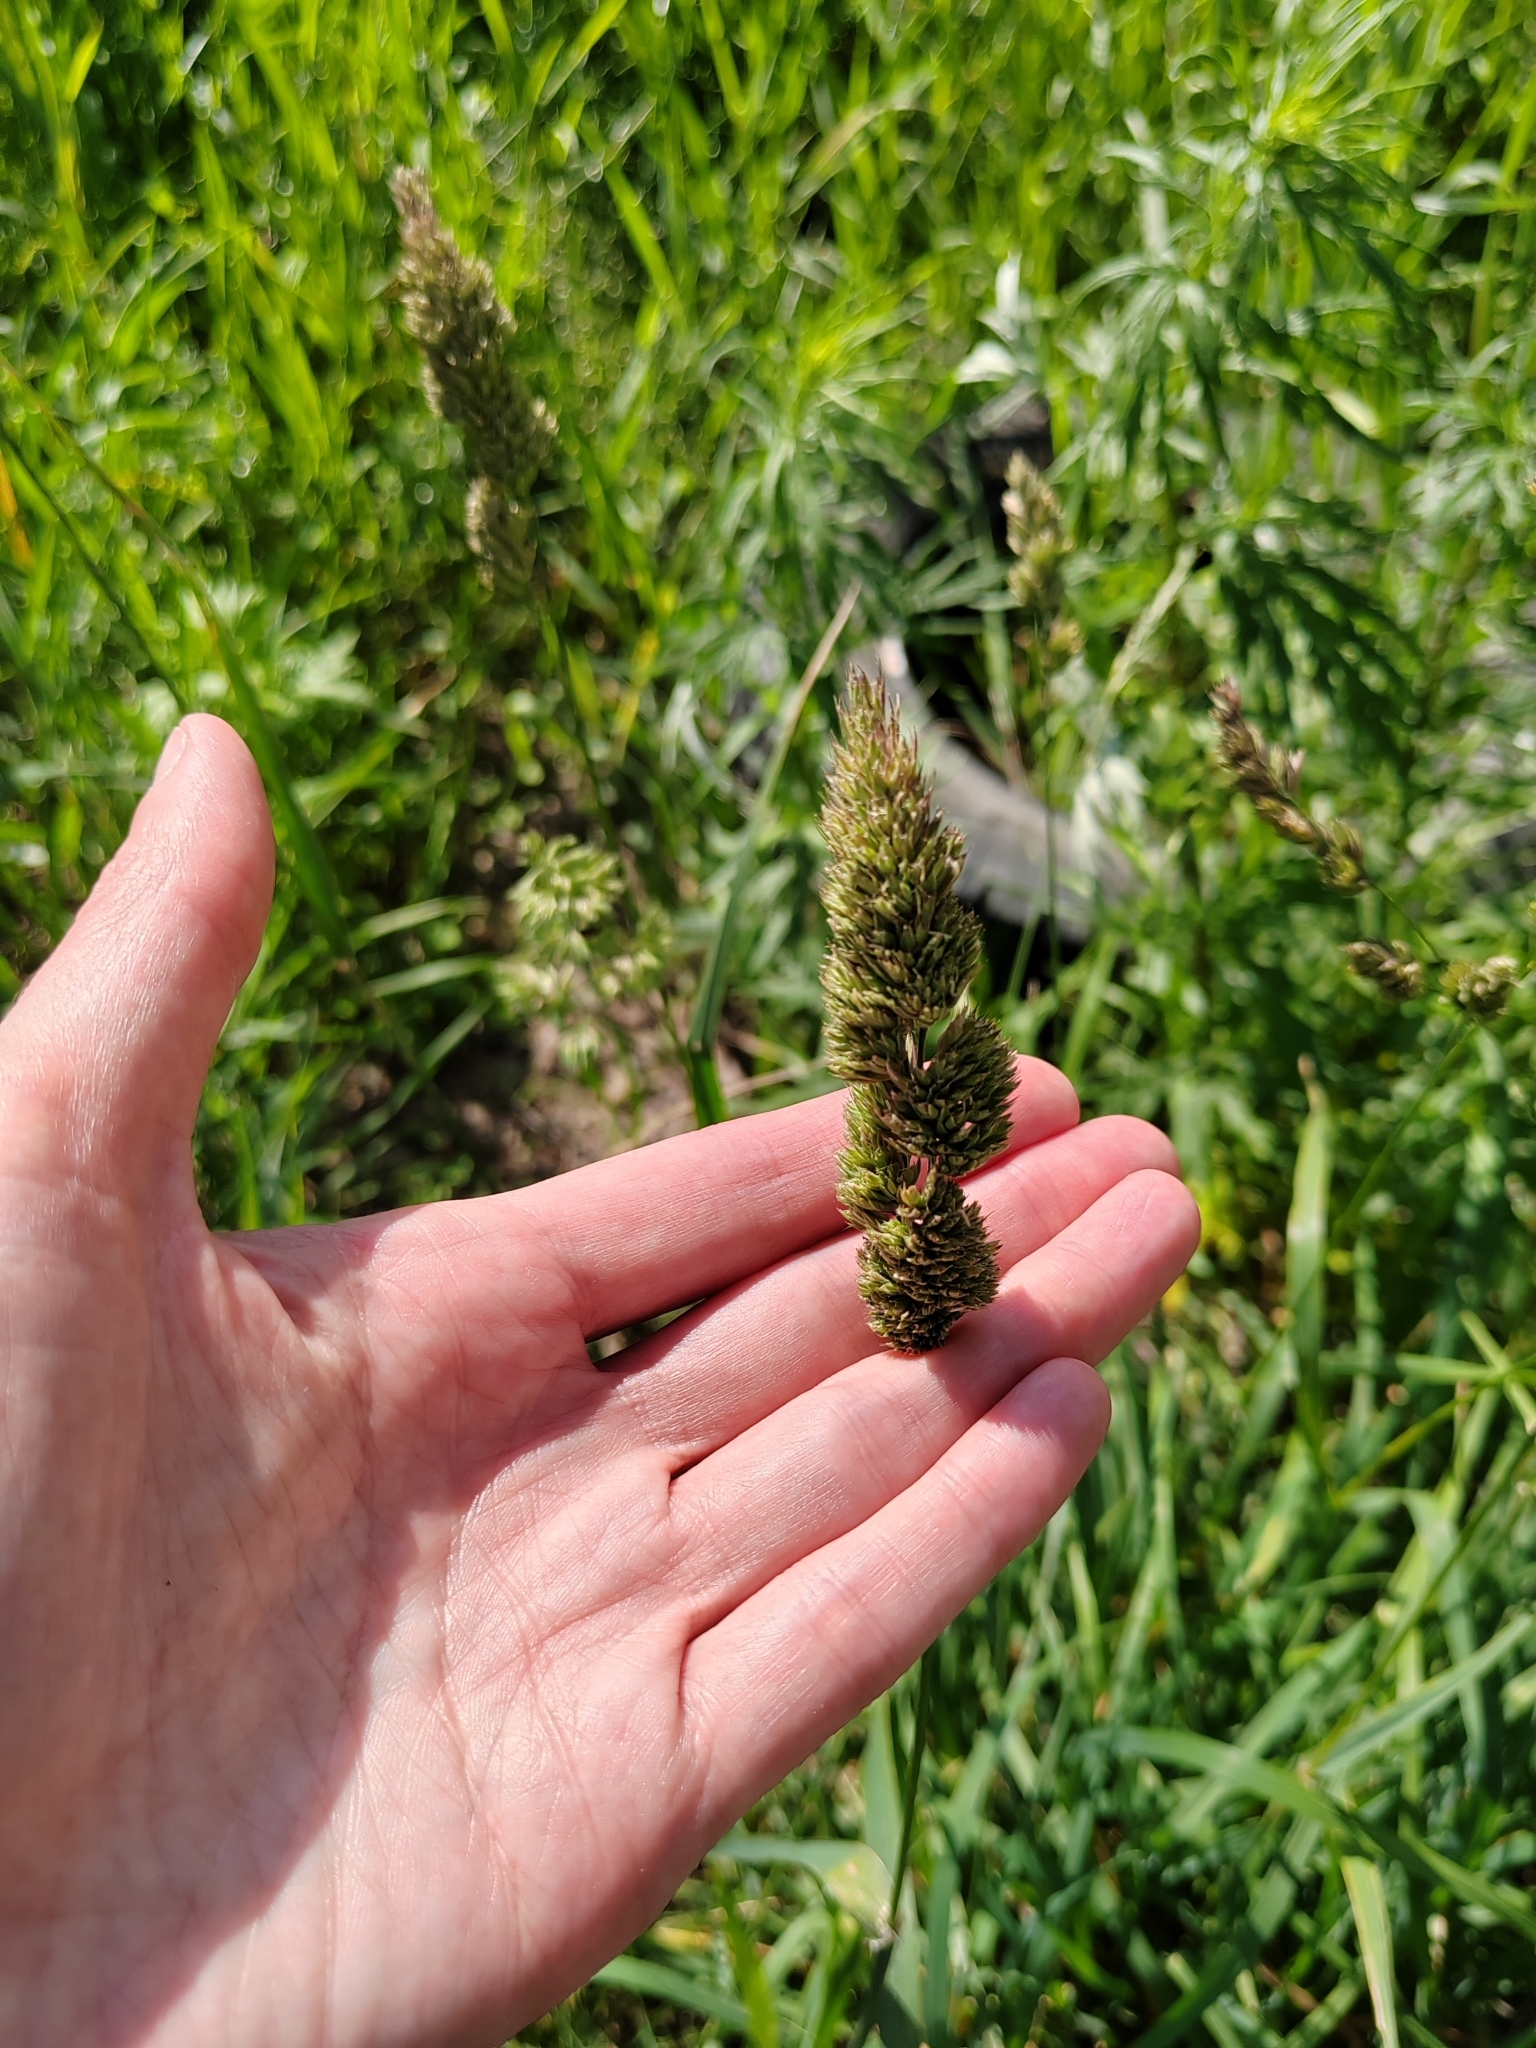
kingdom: Plantae
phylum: Tracheophyta
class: Liliopsida
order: Poales
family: Poaceae
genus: Dactylis
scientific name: Dactylis glomerata
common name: Orchardgrass
